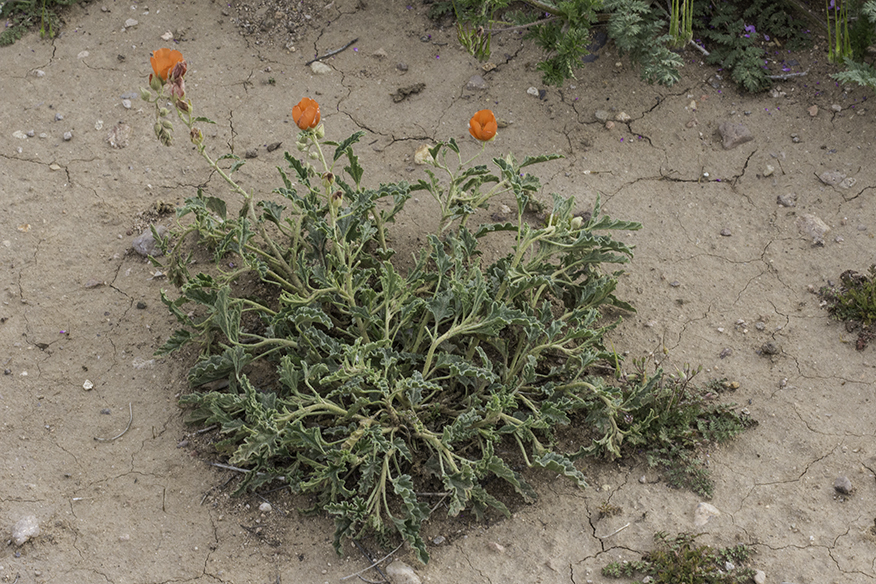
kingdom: Plantae
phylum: Tracheophyta
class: Magnoliopsida
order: Malvales
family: Malvaceae
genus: Sphaeralcea
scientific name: Sphaeralcea hastulata
